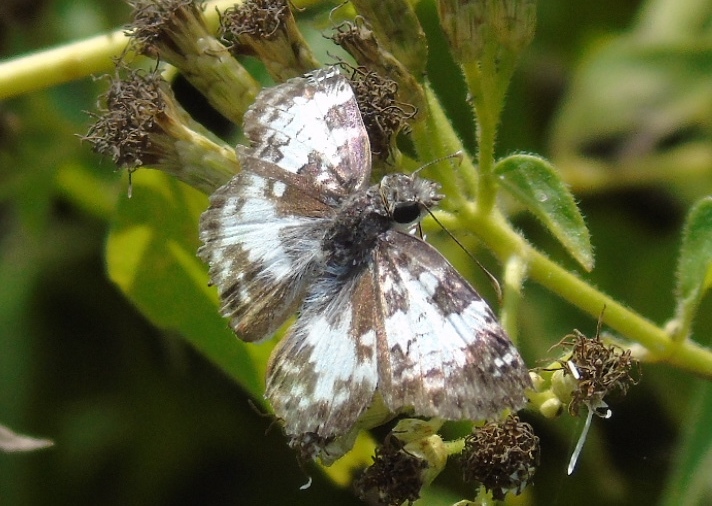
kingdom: Animalia
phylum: Arthropoda
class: Insecta
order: Lepidoptera
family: Hesperiidae
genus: Chiothion
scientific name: Chiothion georgina
